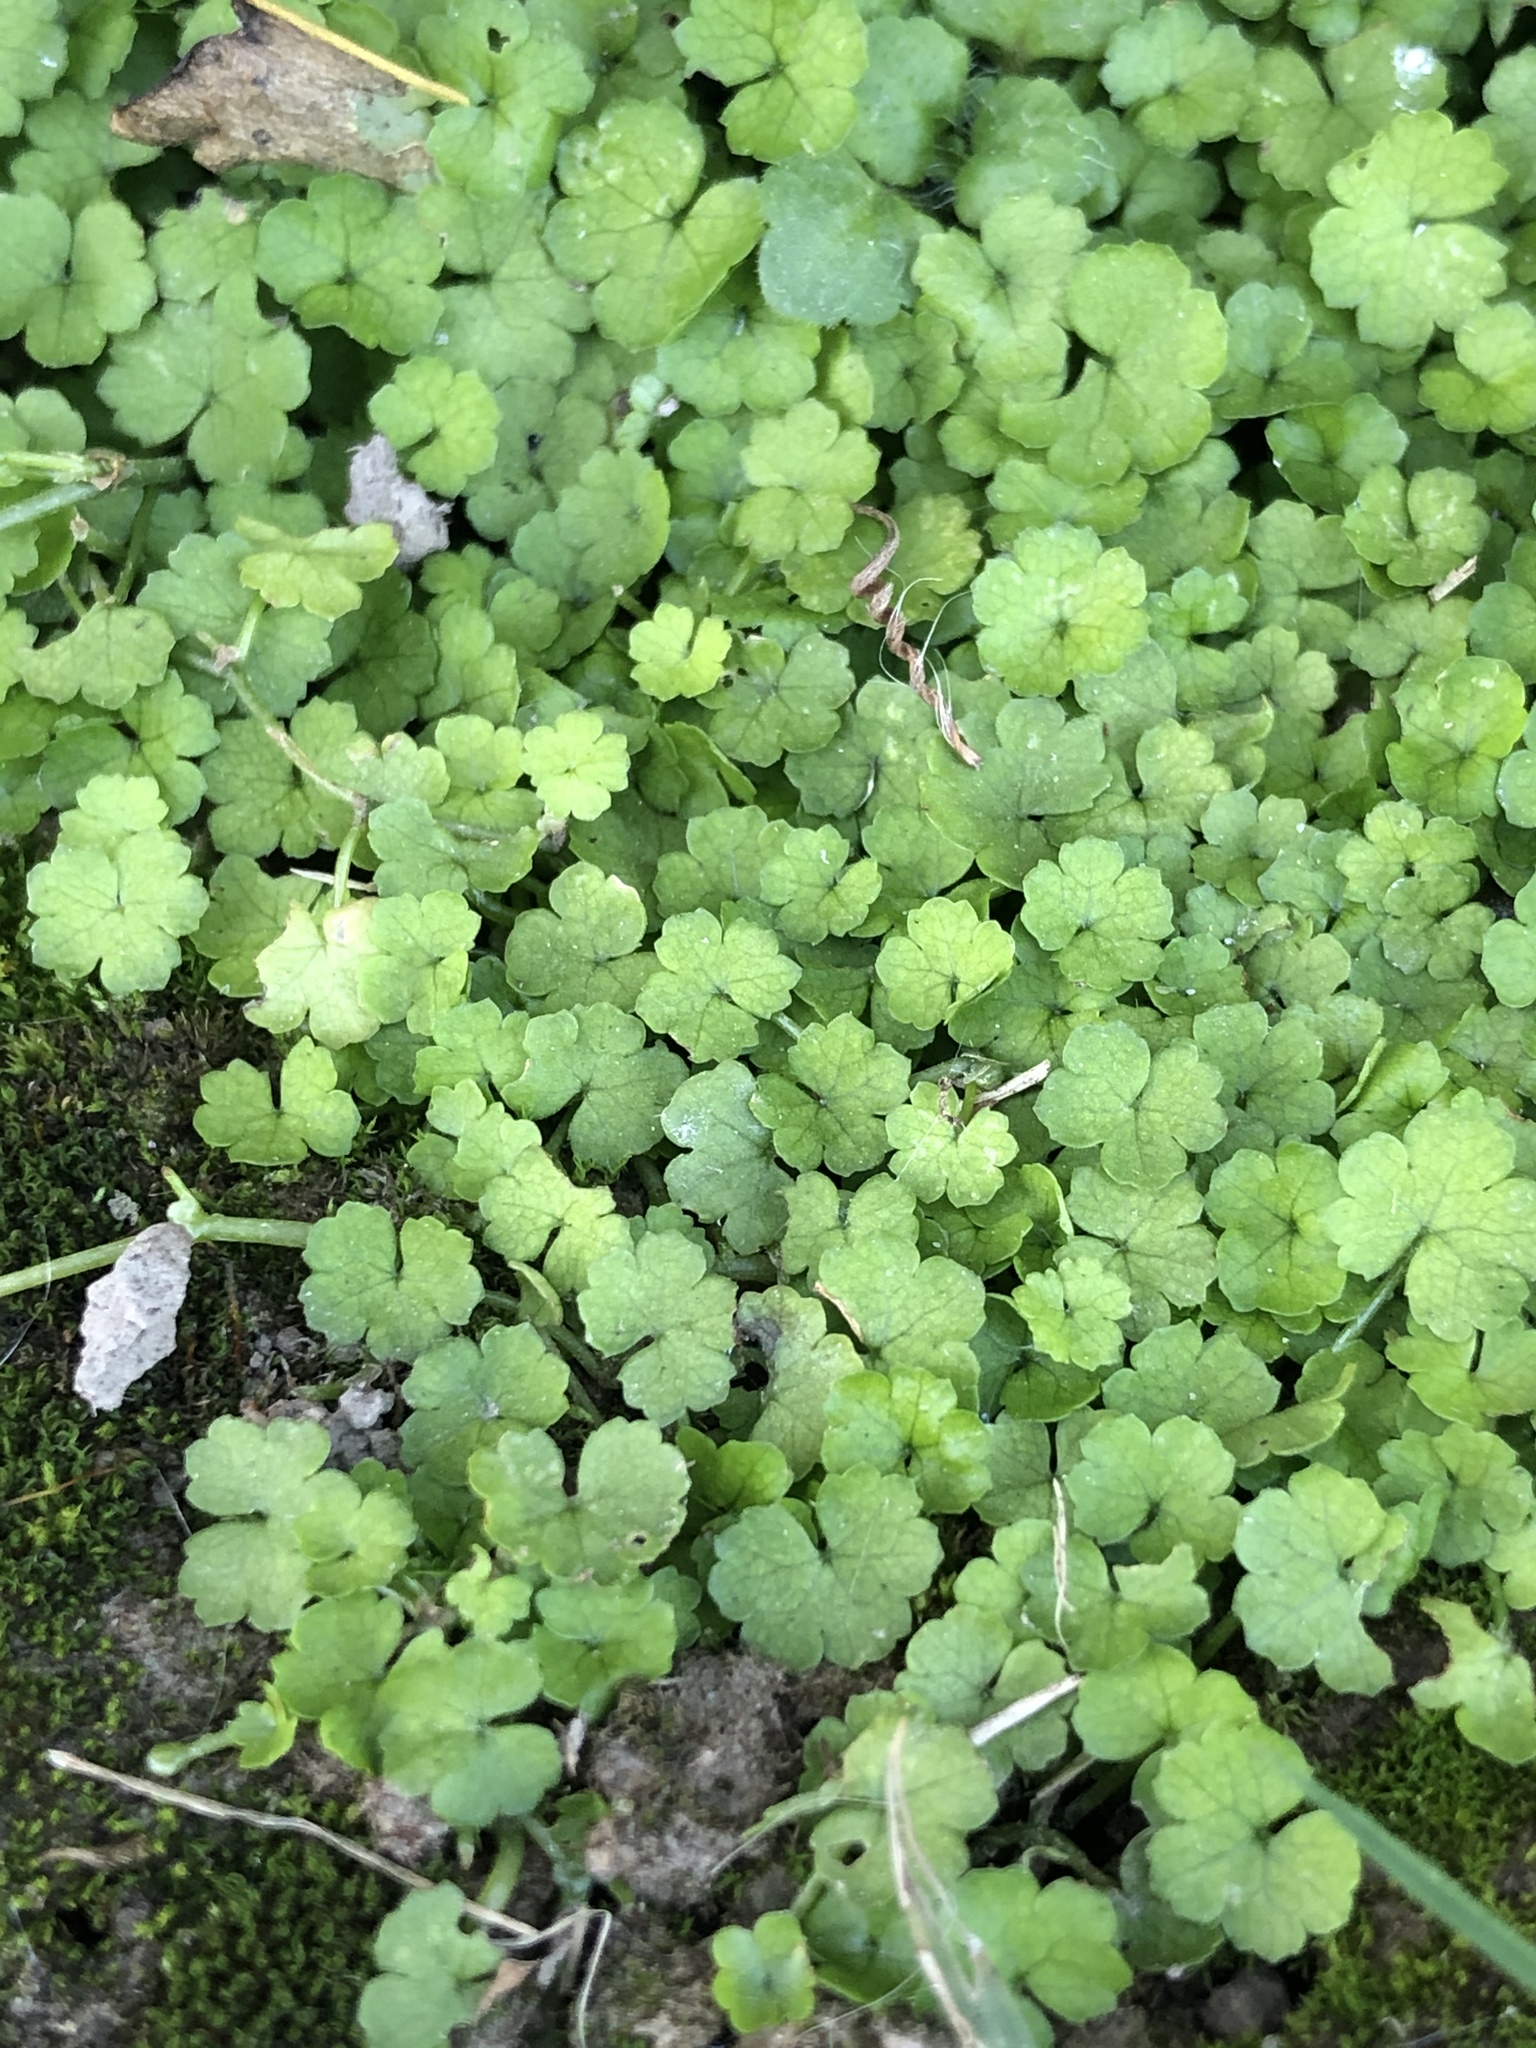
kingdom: Plantae
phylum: Tracheophyta
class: Magnoliopsida
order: Apiales
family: Araliaceae
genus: Hydrocotyle
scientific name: Hydrocotyle heteromeria
